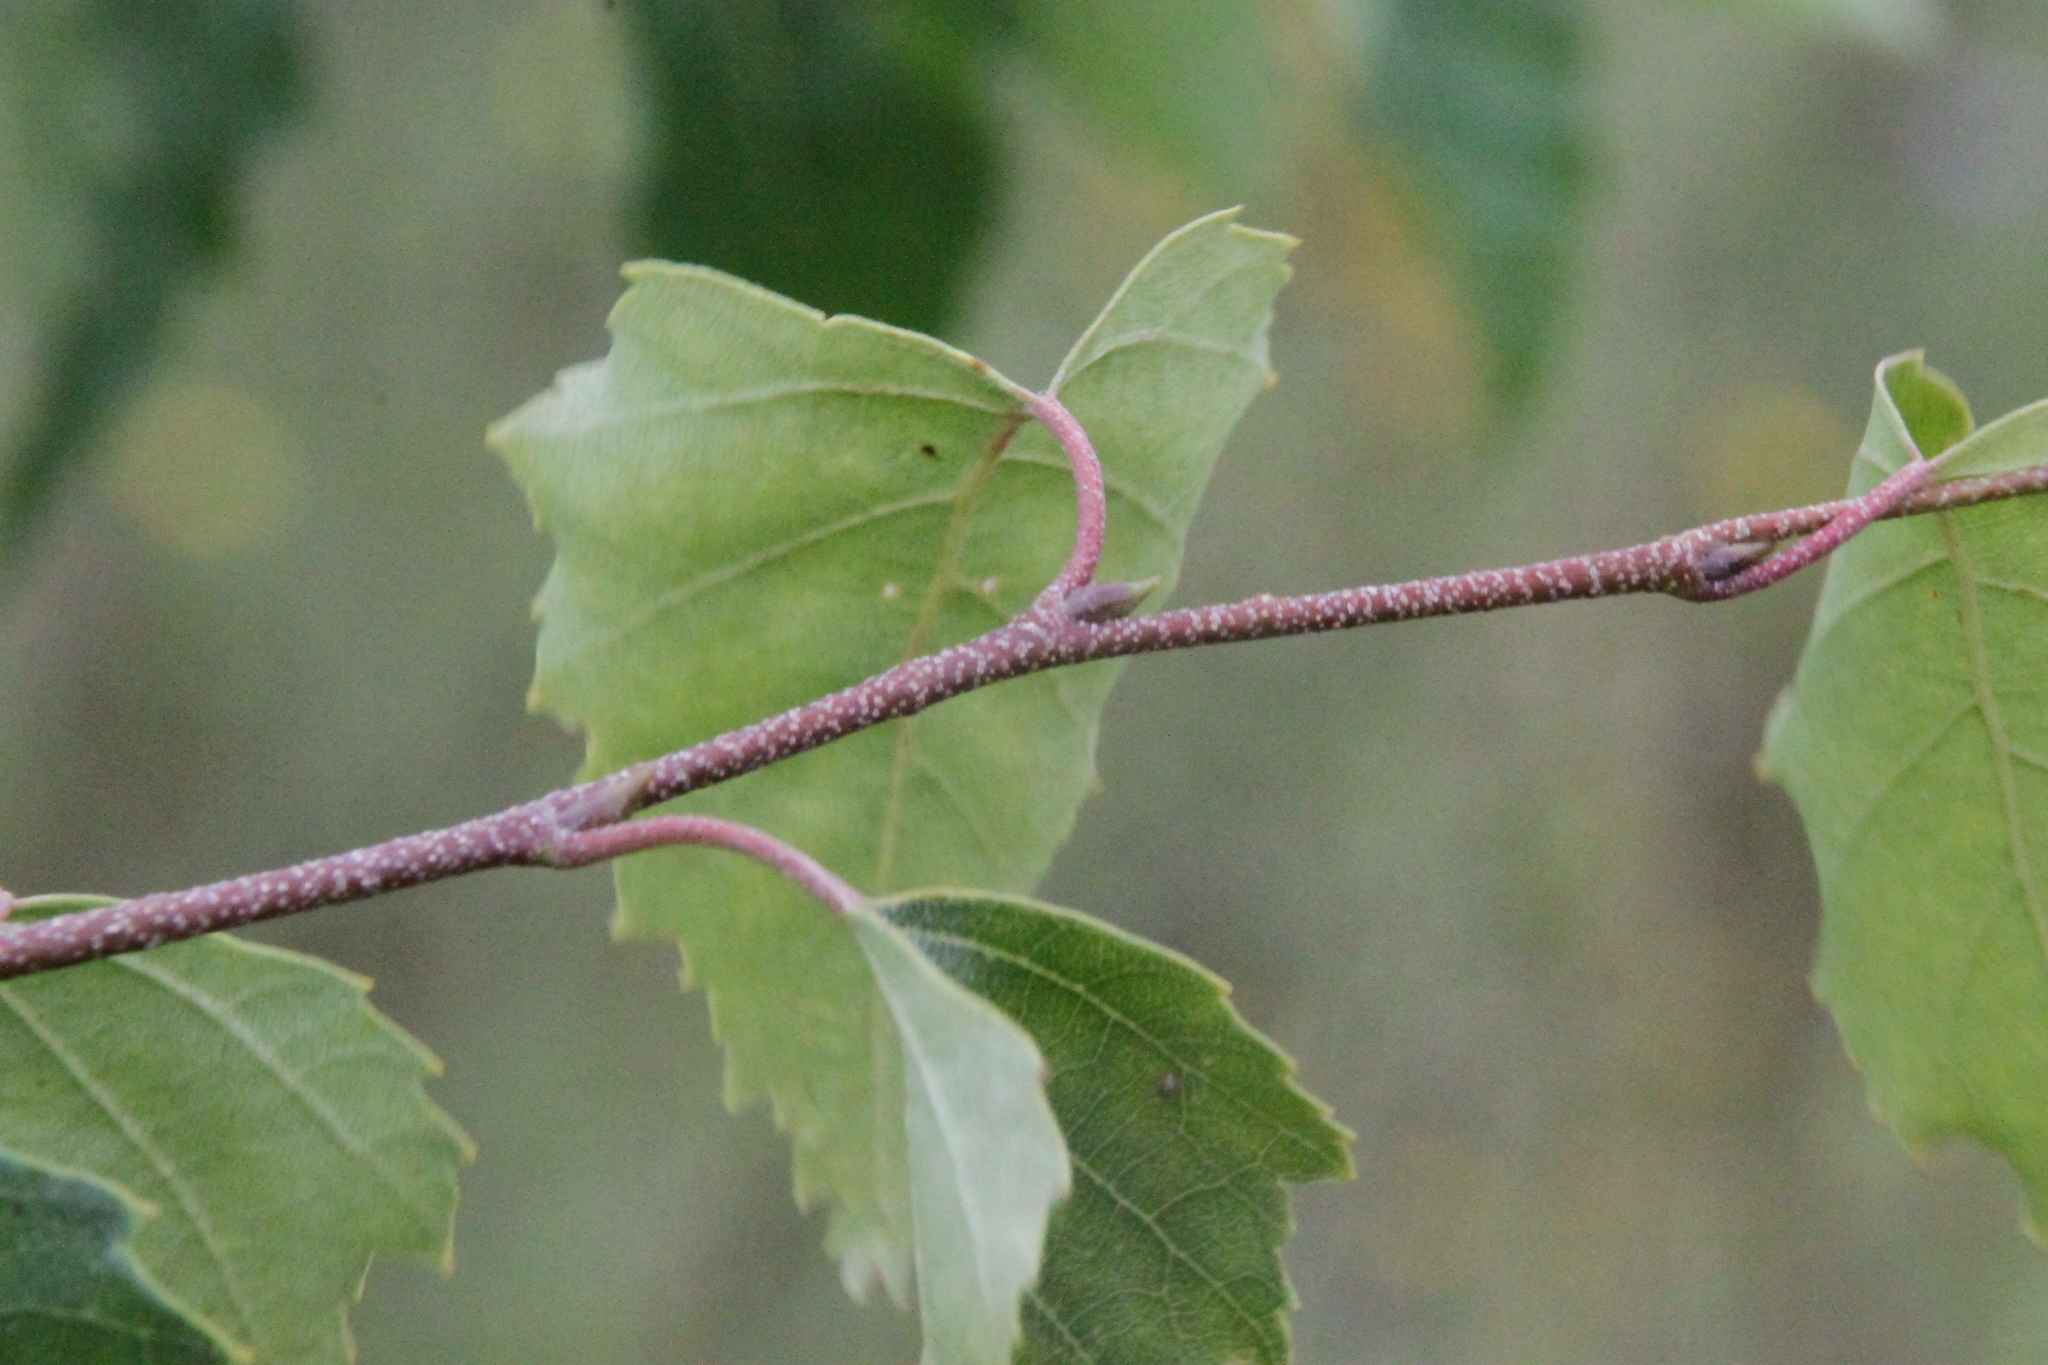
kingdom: Plantae
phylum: Tracheophyta
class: Magnoliopsida
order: Fagales
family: Betulaceae
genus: Betula
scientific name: Betula pendula
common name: Silver birch
